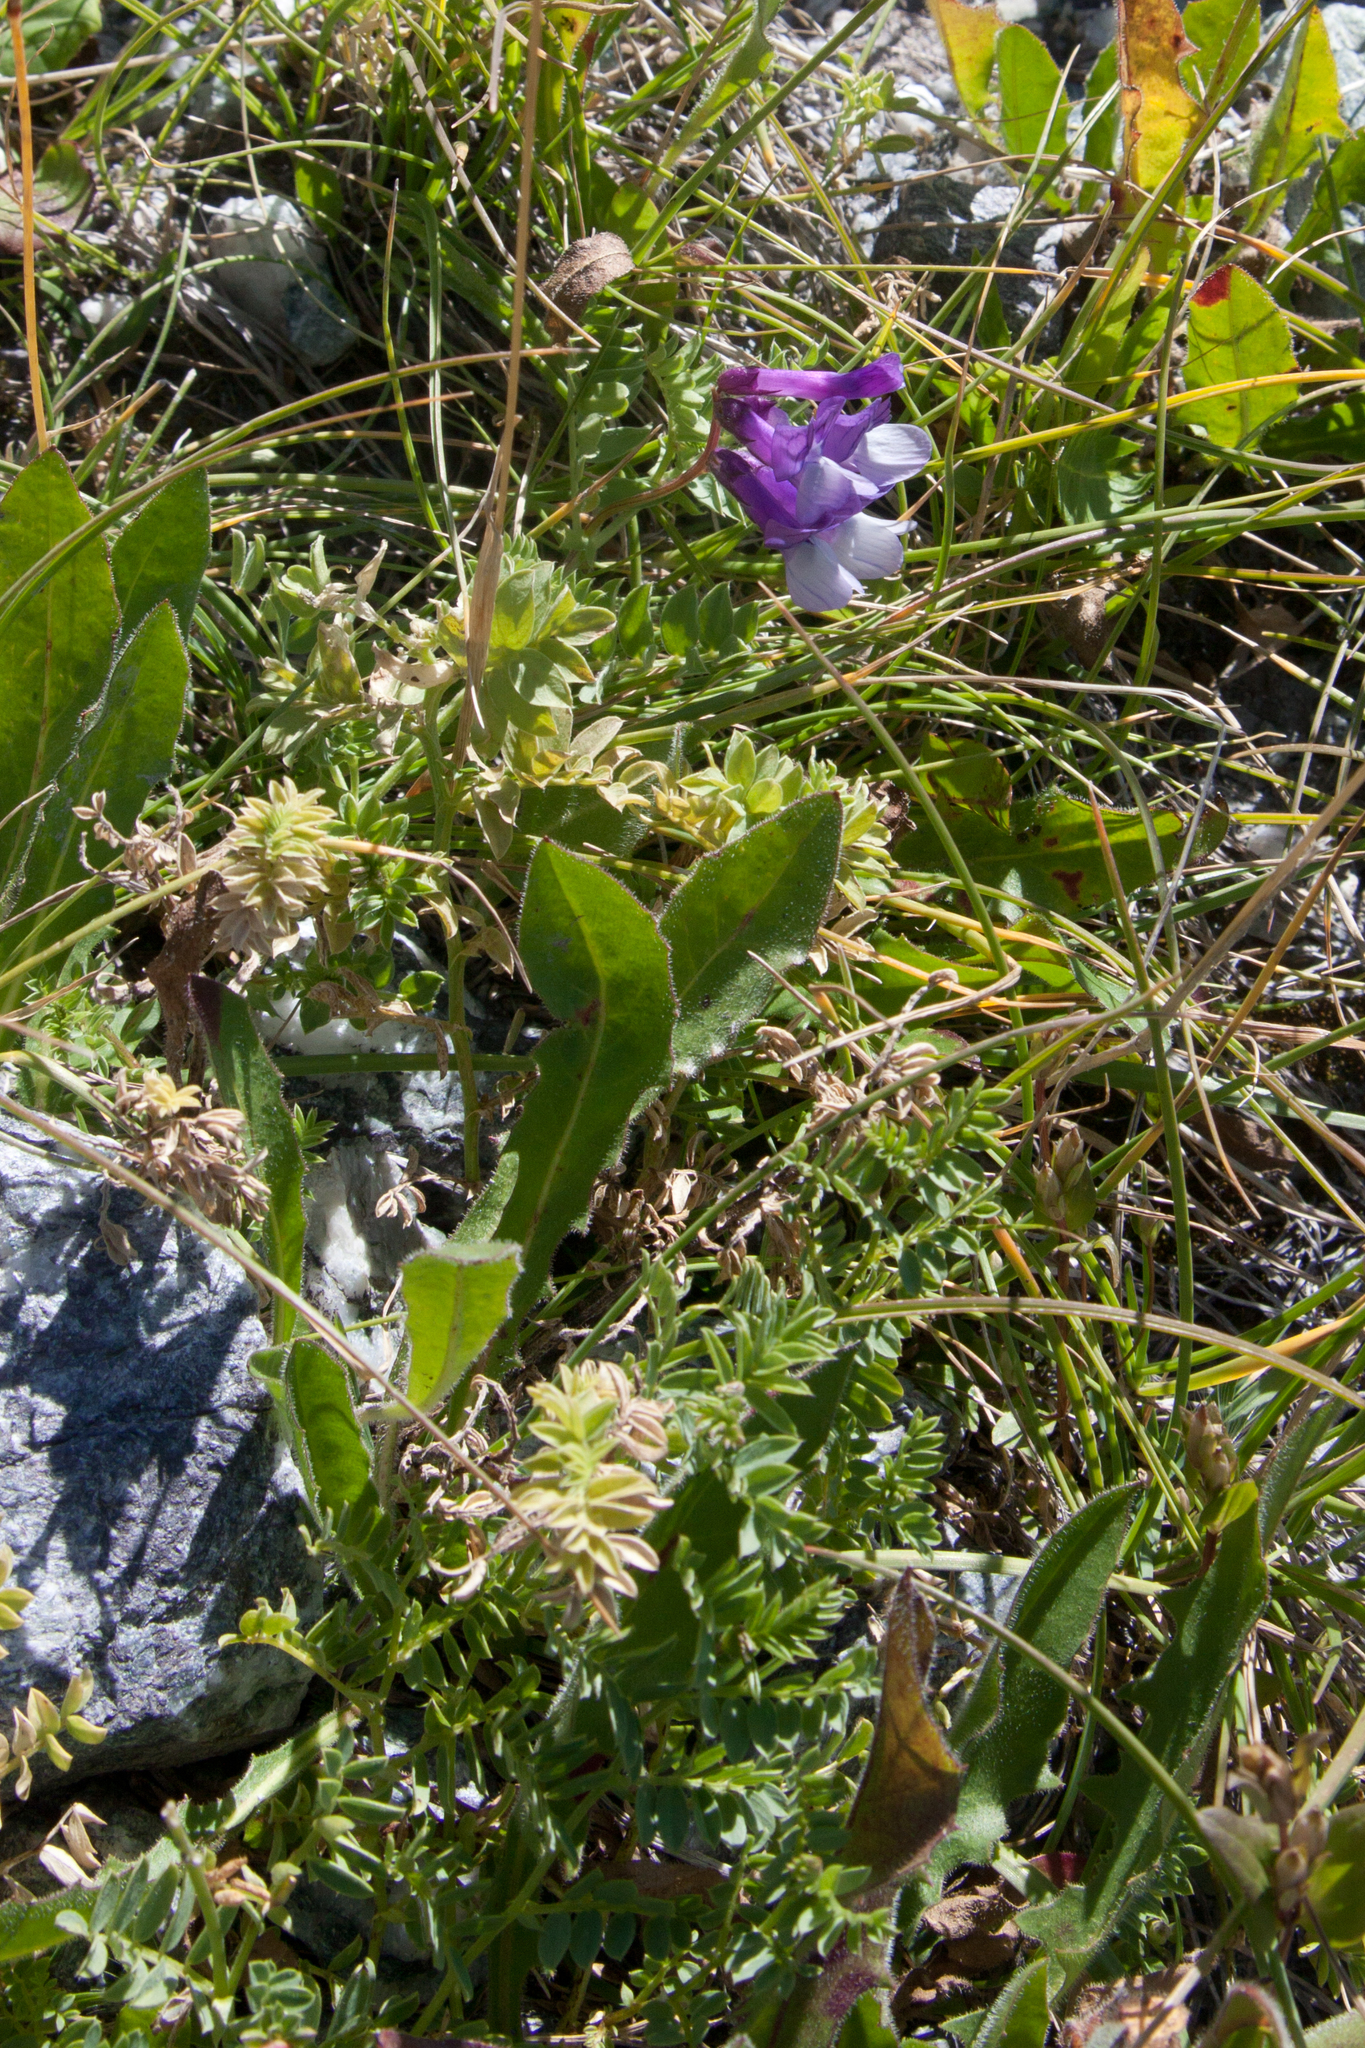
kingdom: Plantae
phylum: Tracheophyta
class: Magnoliopsida
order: Fabales
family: Fabaceae
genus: Vicia
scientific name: Vicia sosnowskyi
